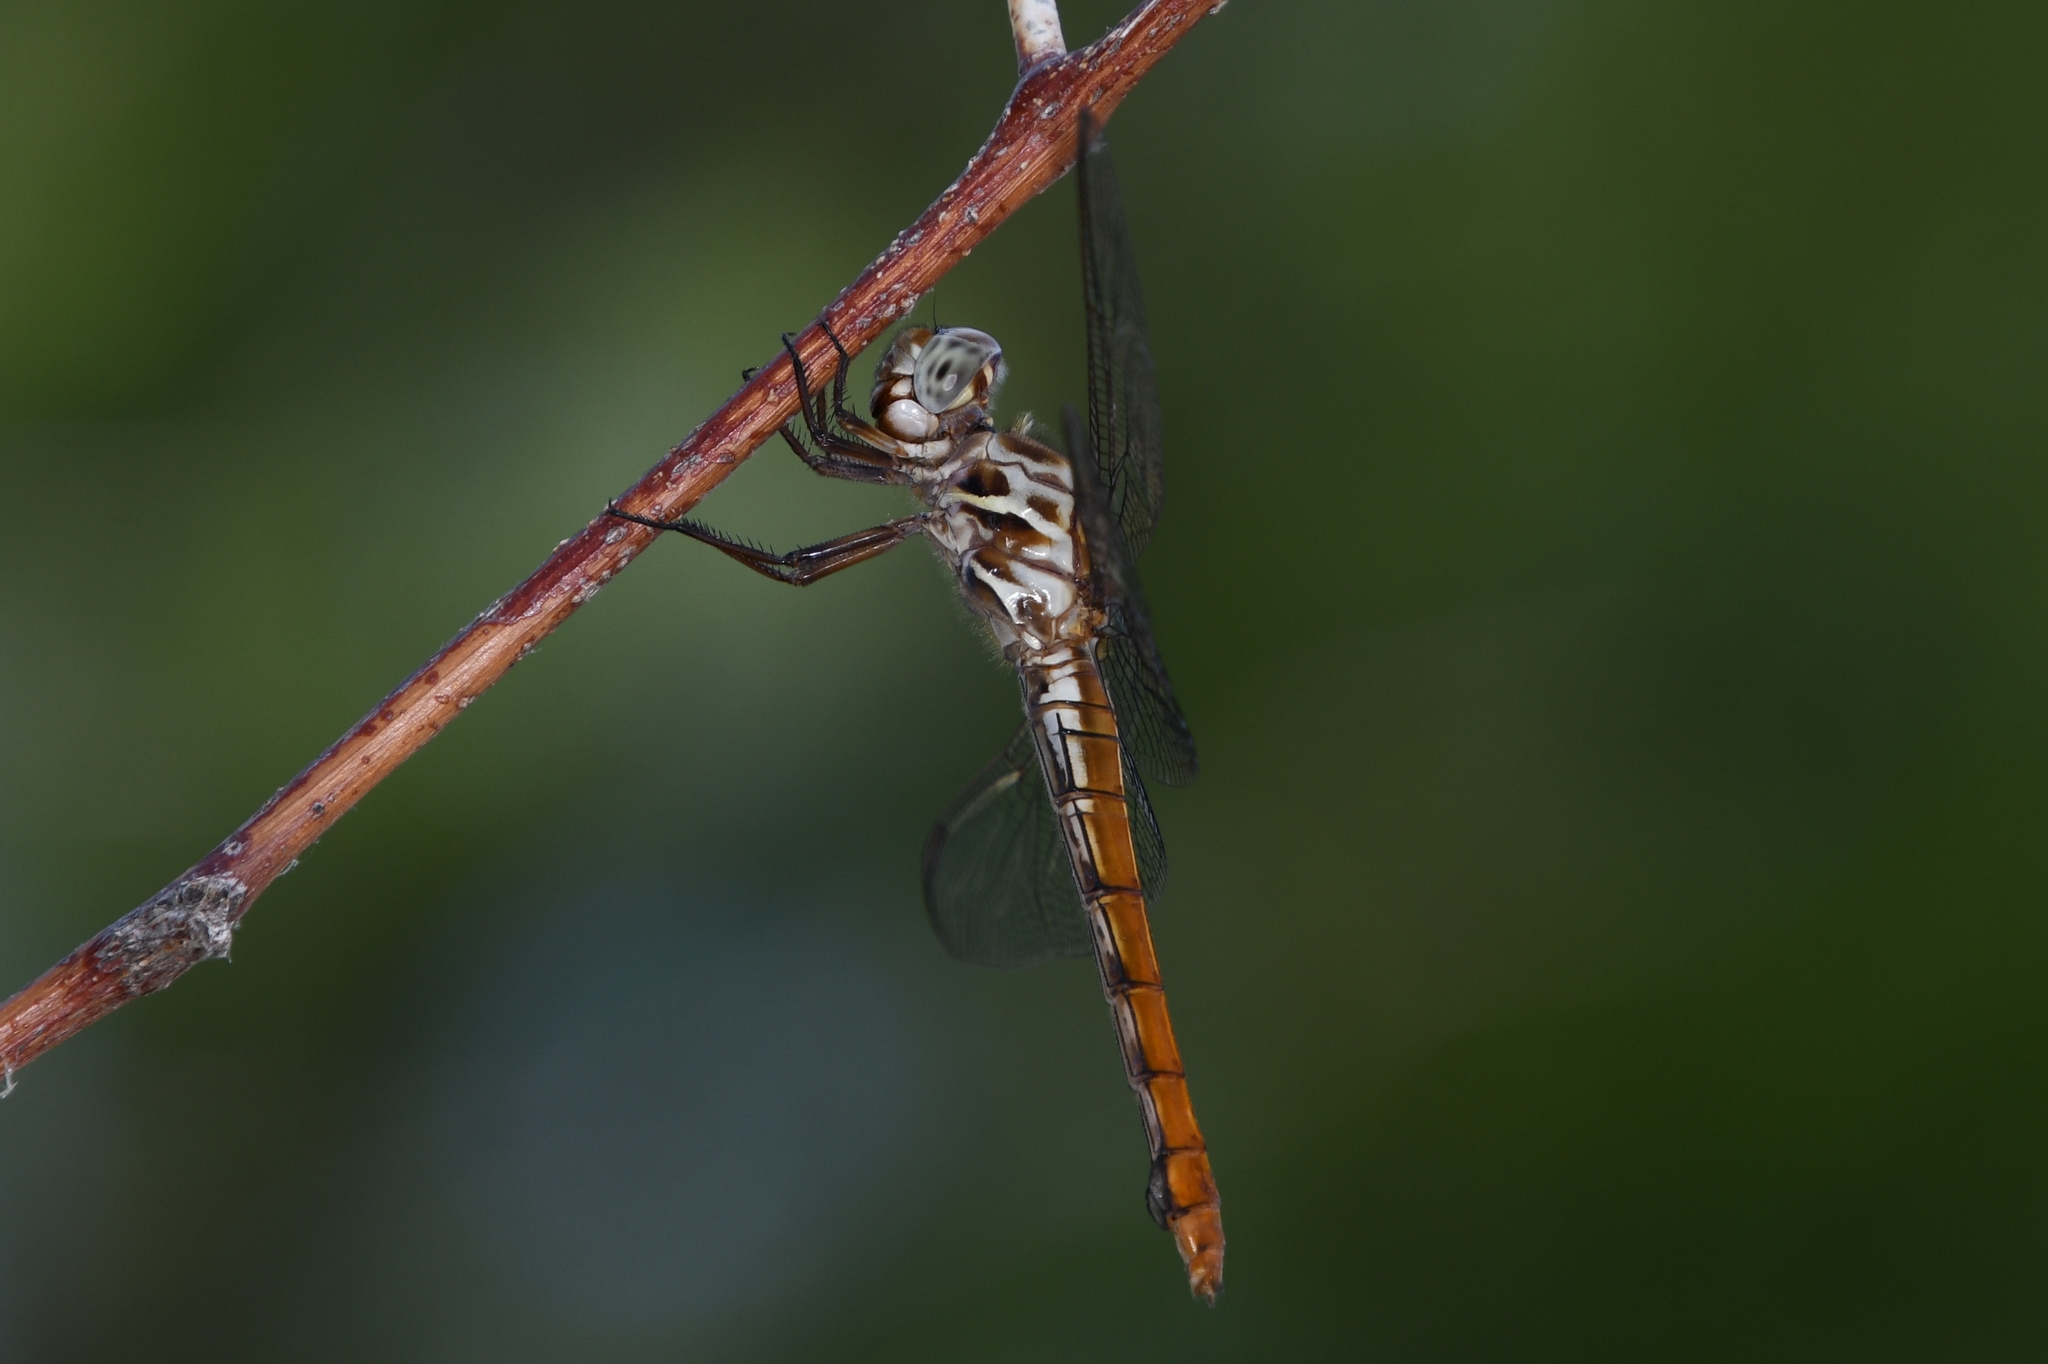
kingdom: Animalia
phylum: Arthropoda
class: Insecta
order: Odonata
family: Libellulidae
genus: Orthemis
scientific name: Orthemis ferruginea
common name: Roseate skimmer
